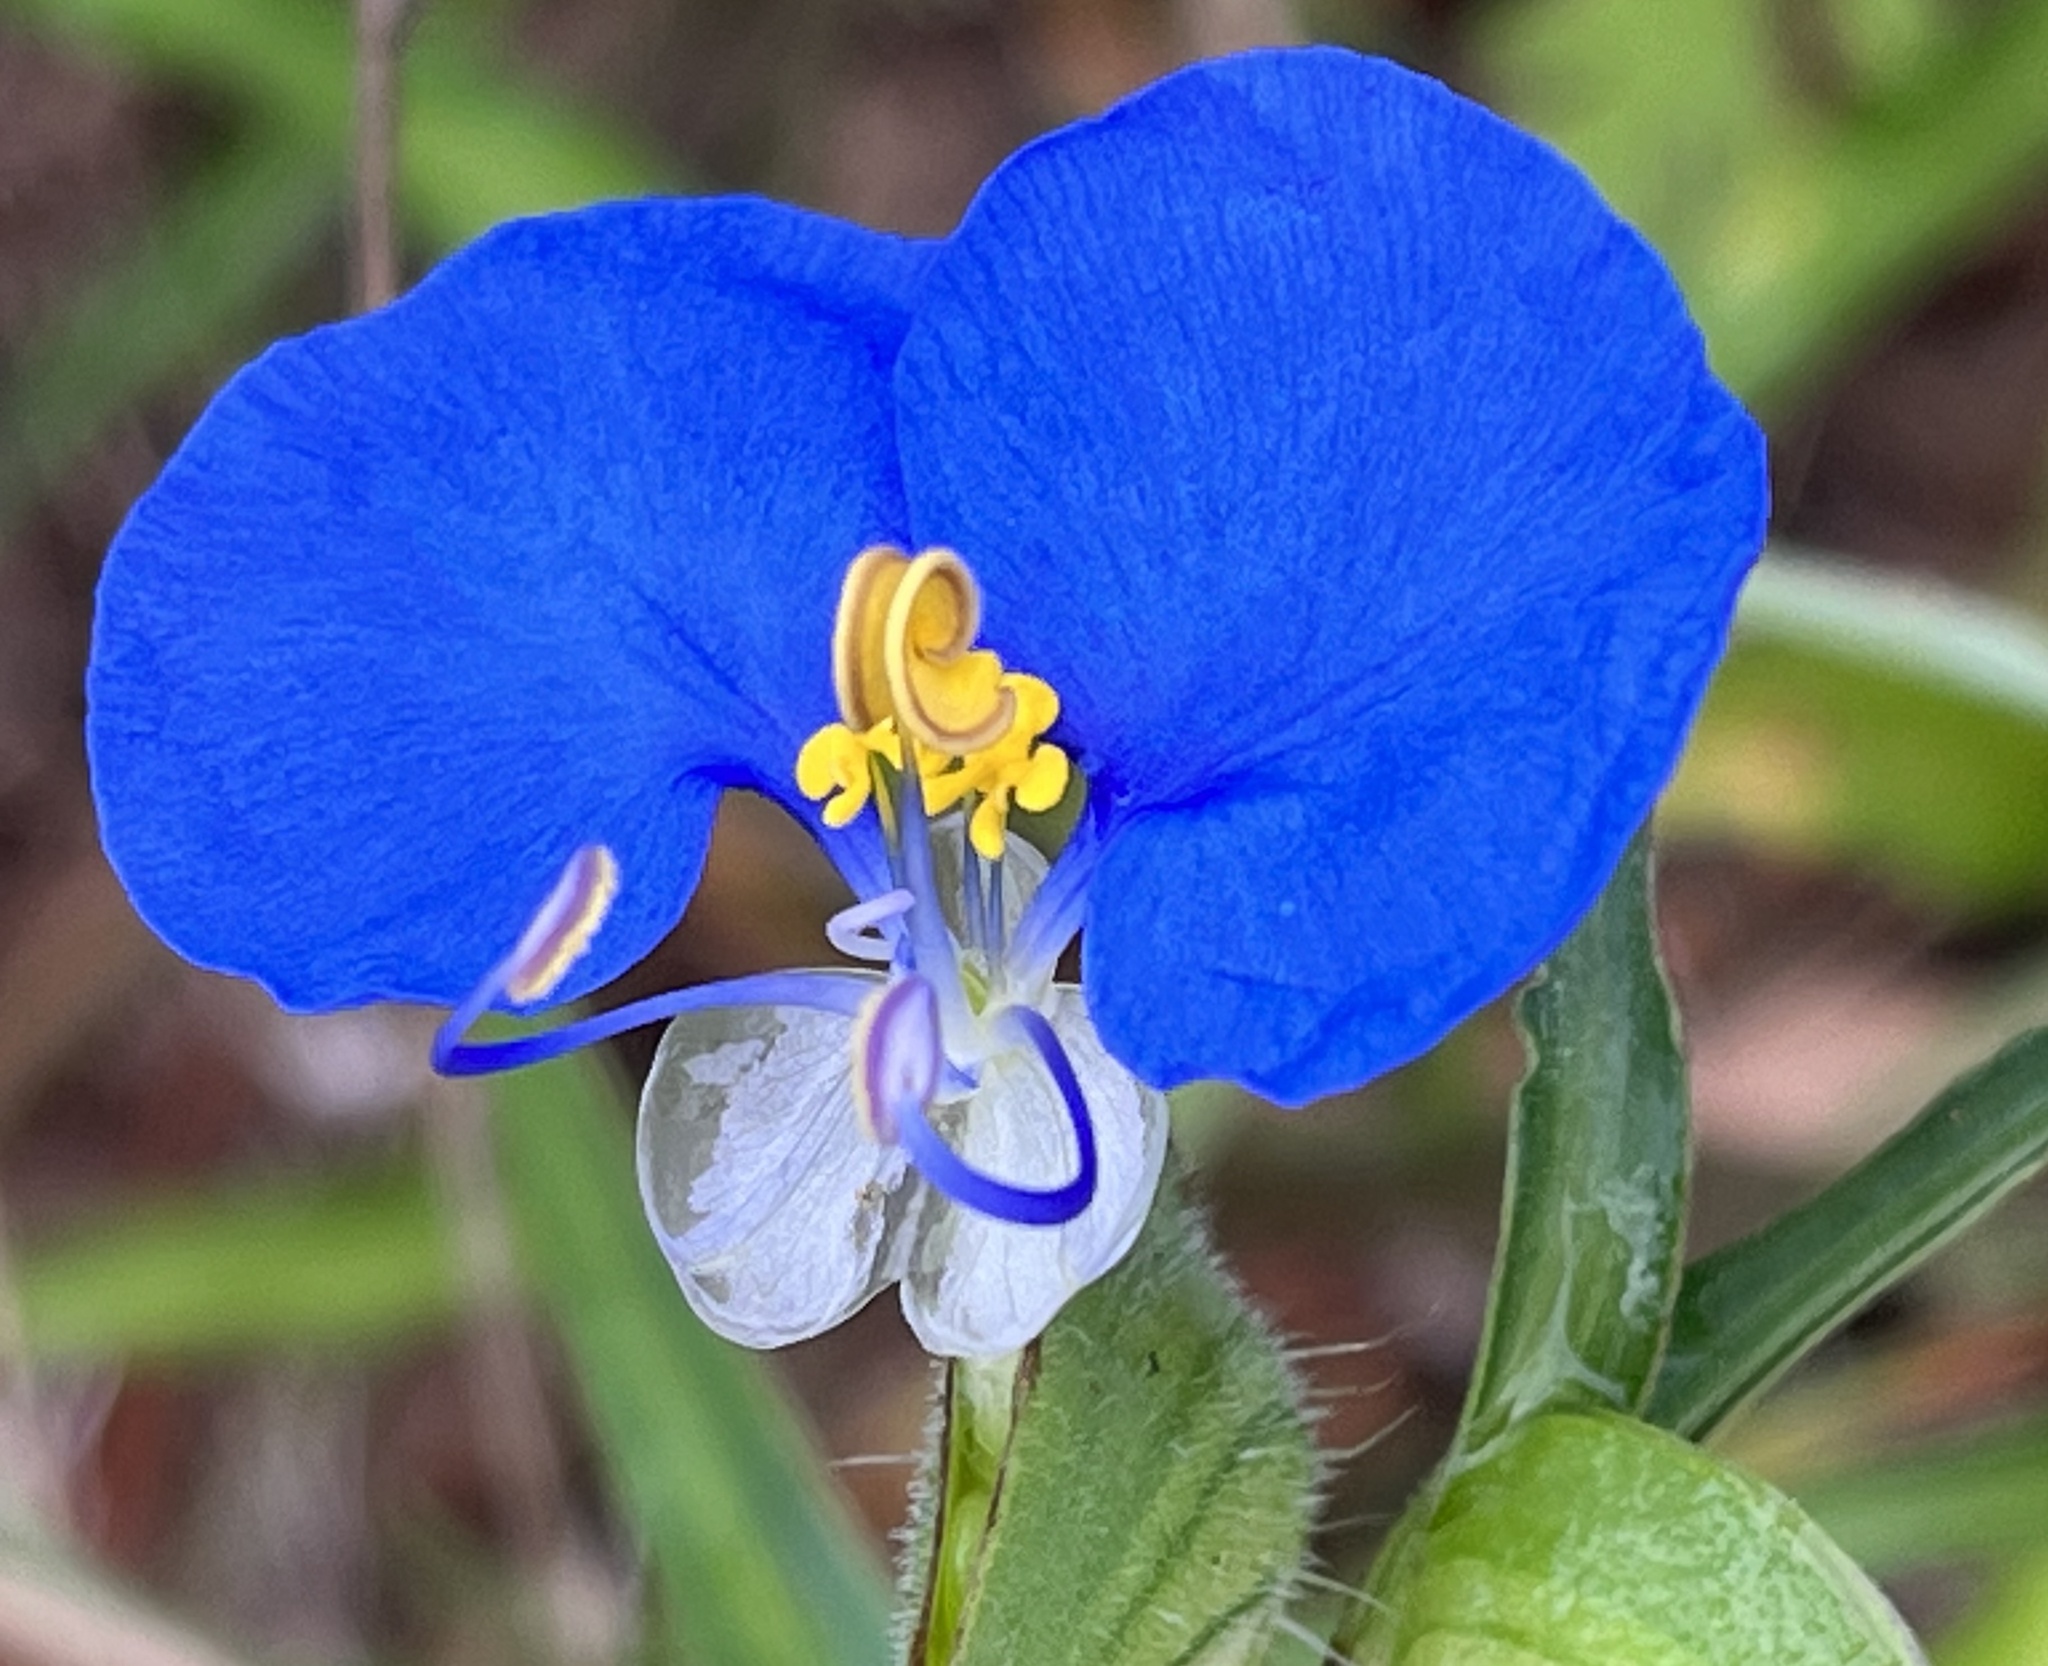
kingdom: Plantae
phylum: Tracheophyta
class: Liliopsida
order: Commelinales
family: Commelinaceae
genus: Commelina
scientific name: Commelina erecta
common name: Blousel blommetjie
